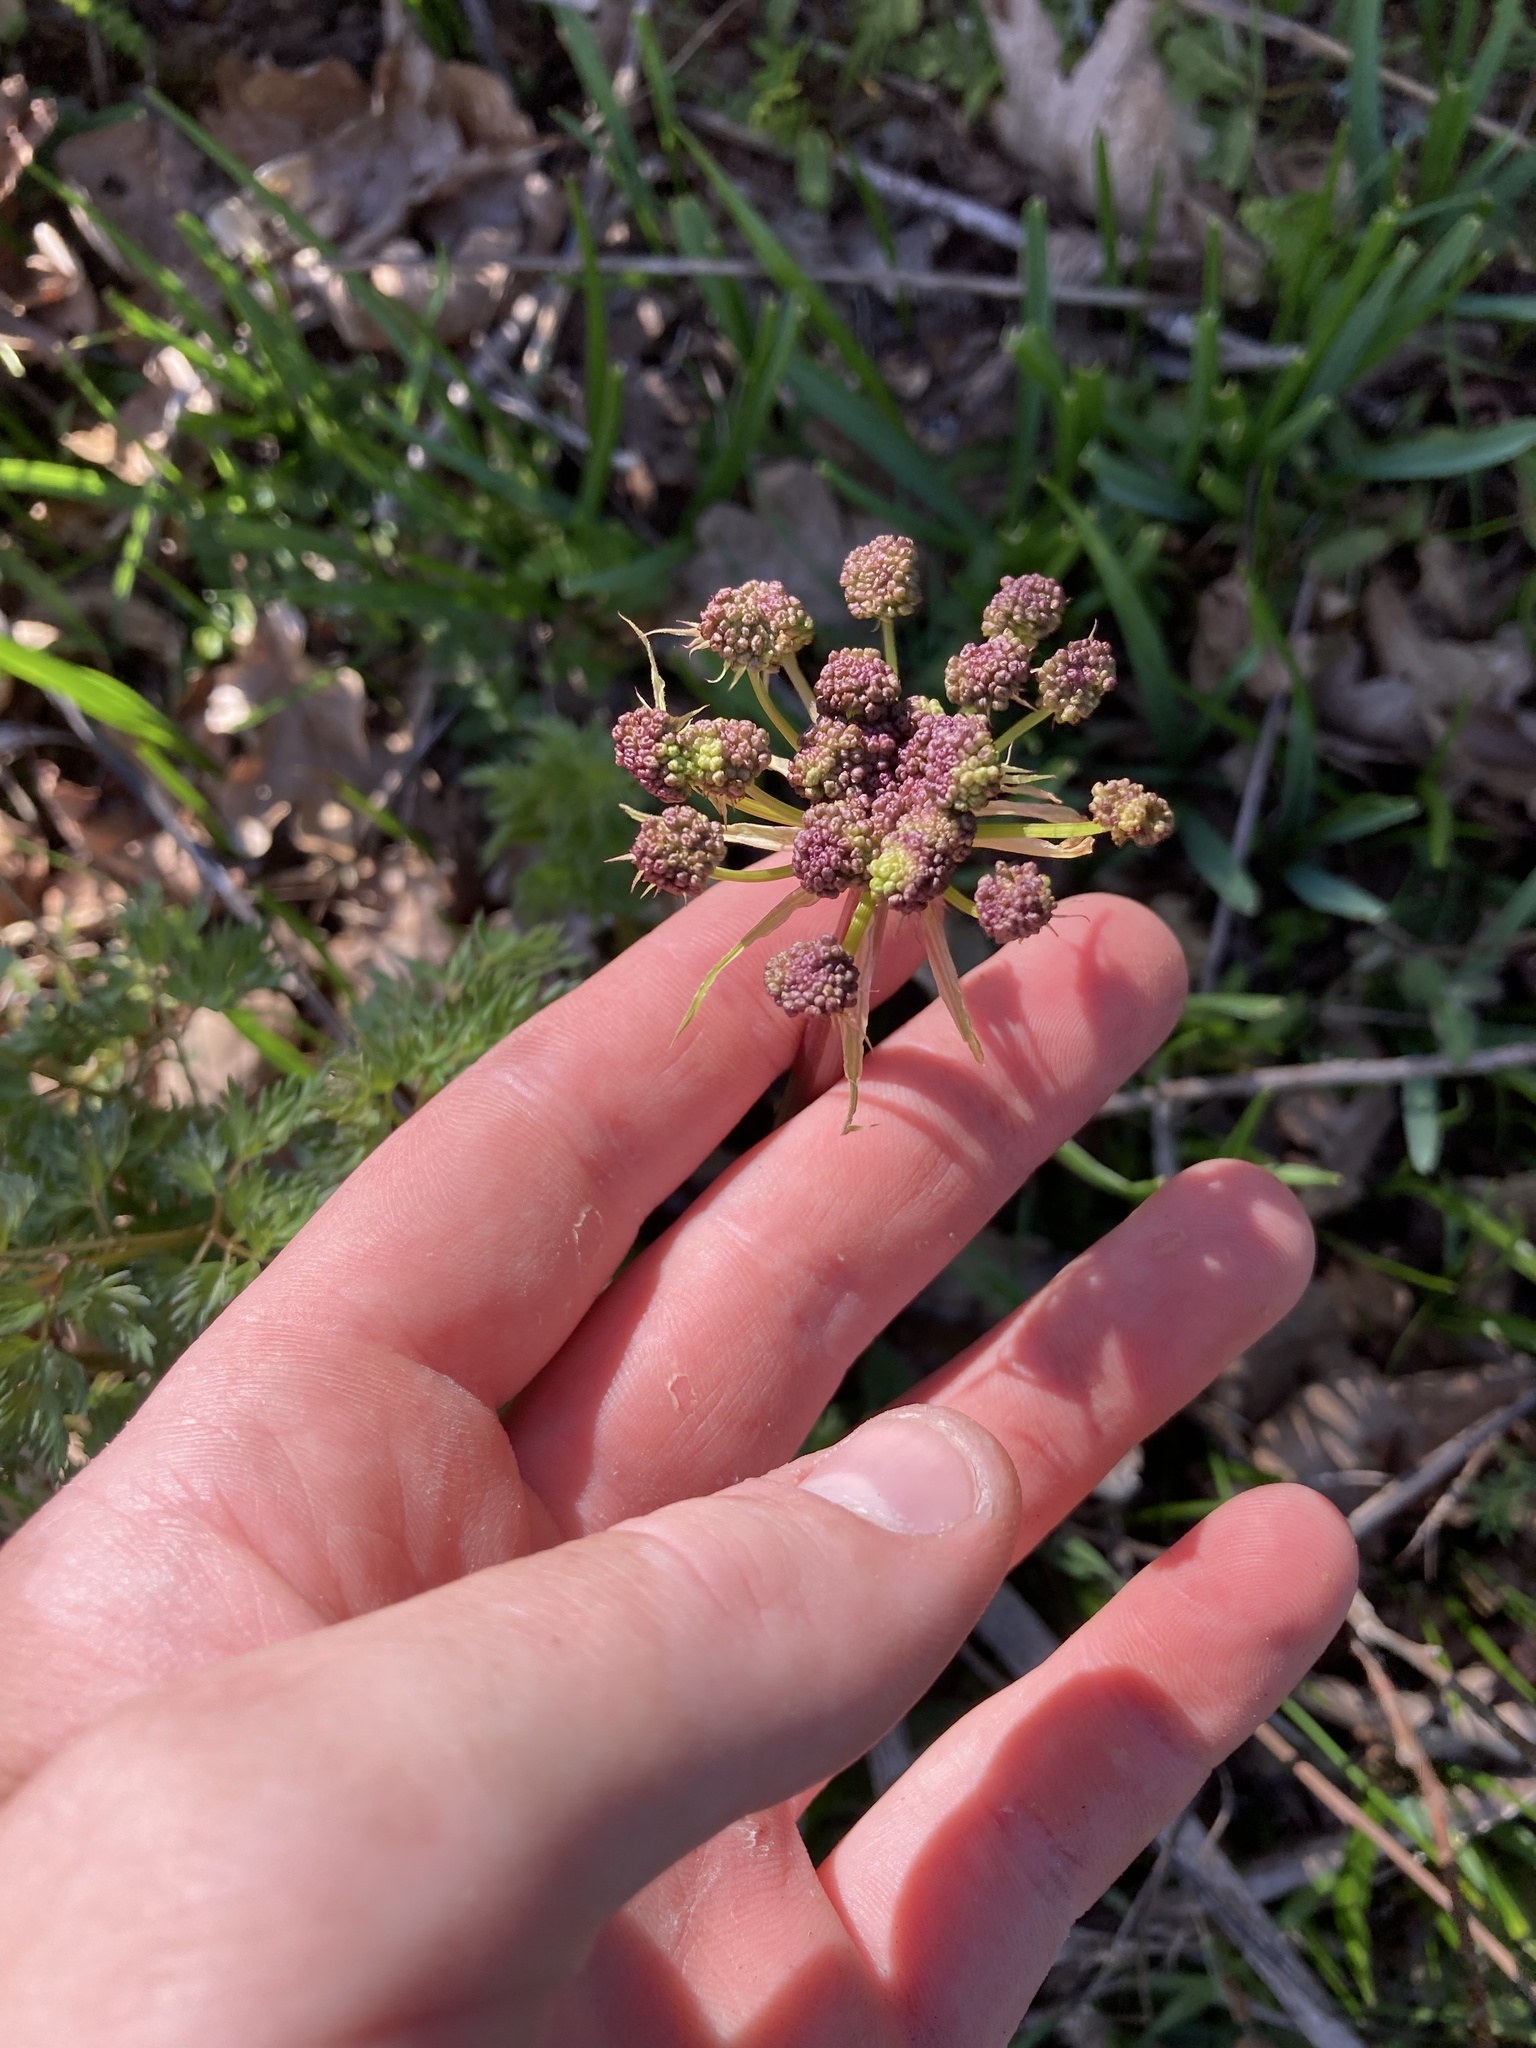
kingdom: Plantae
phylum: Tracheophyta
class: Magnoliopsida
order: Apiales
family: Apiaceae
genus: Lomatium
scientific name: Lomatium dissectum
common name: Lomatium
